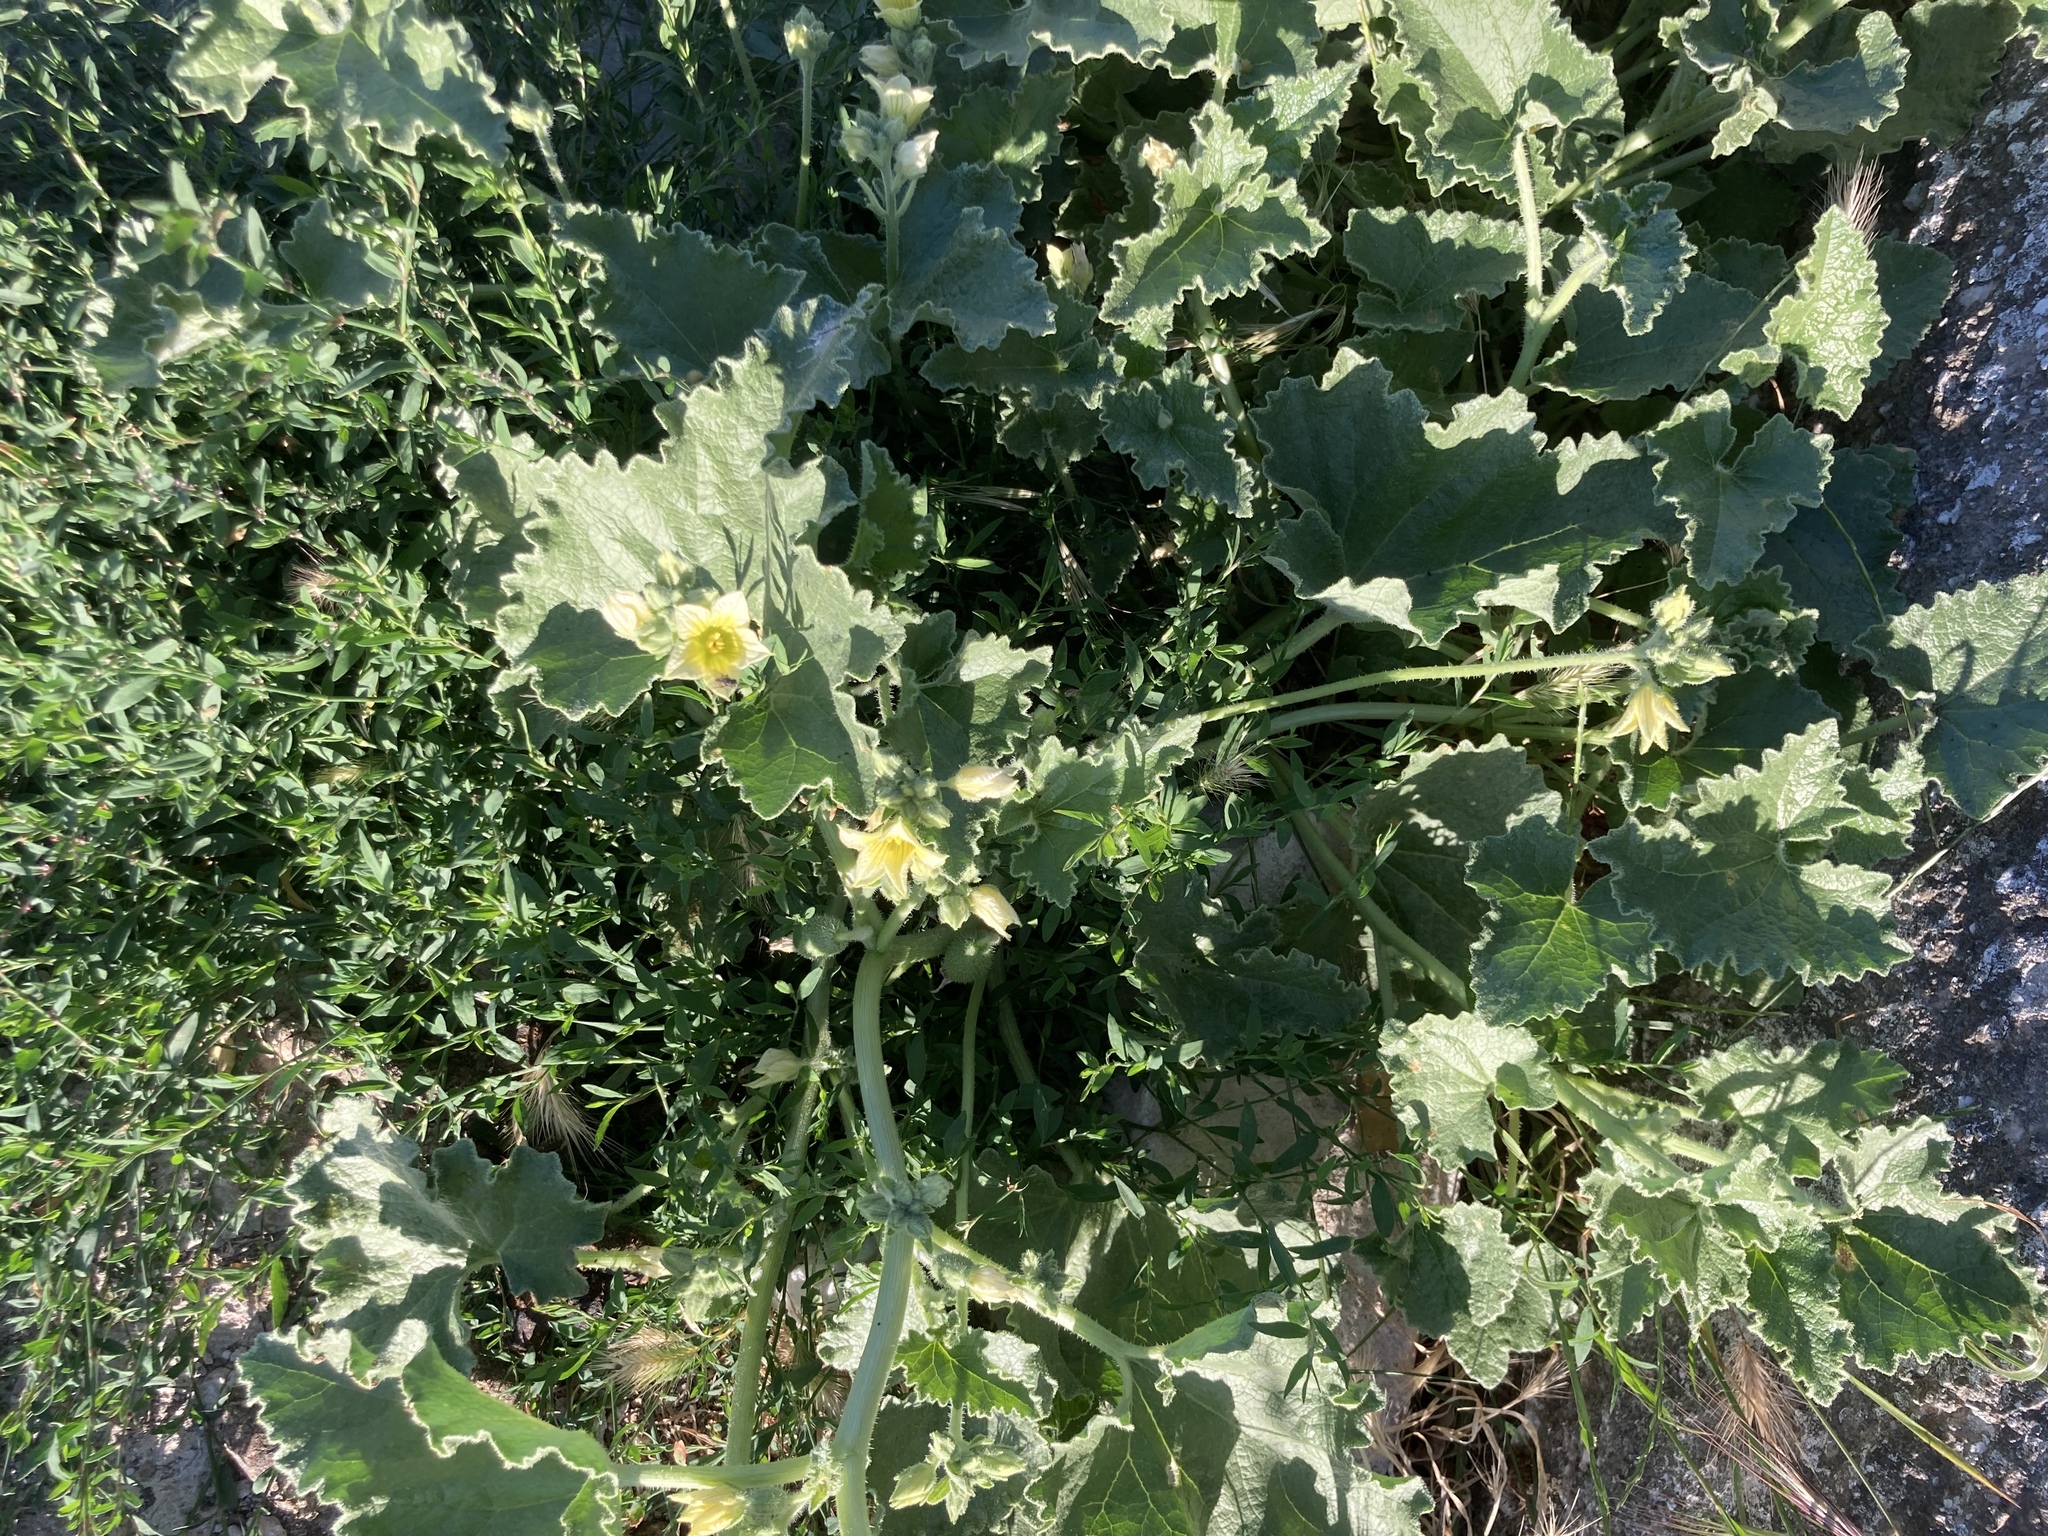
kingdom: Plantae
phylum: Tracheophyta
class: Magnoliopsida
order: Cucurbitales
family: Cucurbitaceae
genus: Ecballium
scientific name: Ecballium elaterium
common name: Squirting cucumber
